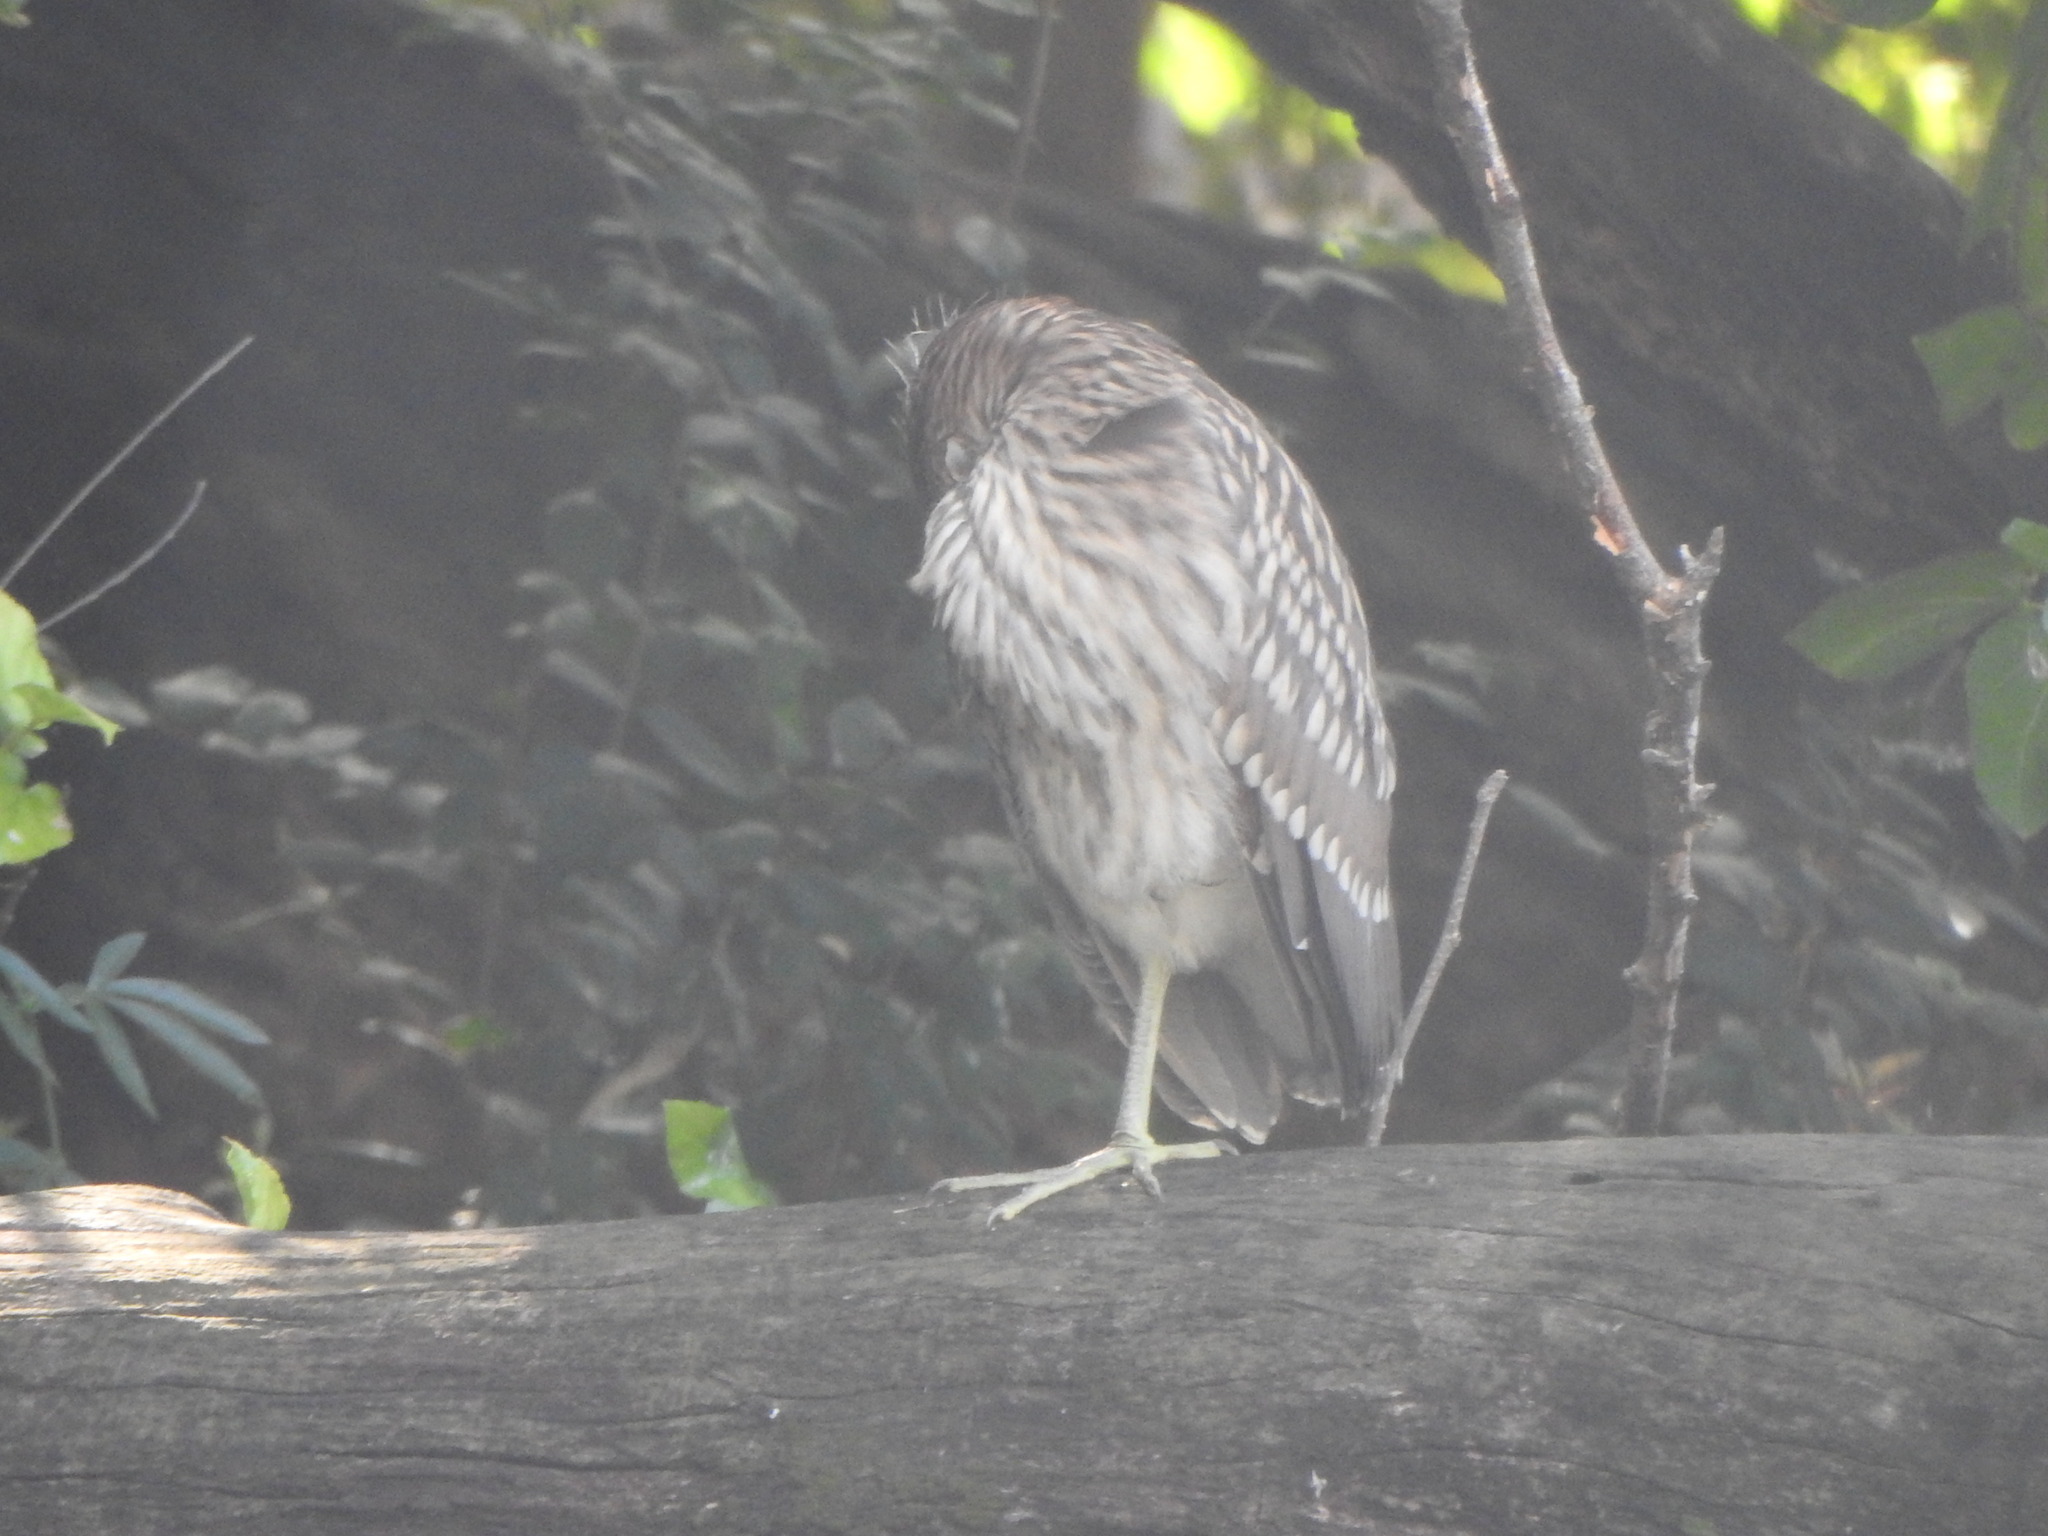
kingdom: Animalia
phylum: Chordata
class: Aves
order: Pelecaniformes
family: Ardeidae
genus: Nycticorax
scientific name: Nycticorax nycticorax
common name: Black-crowned night heron
